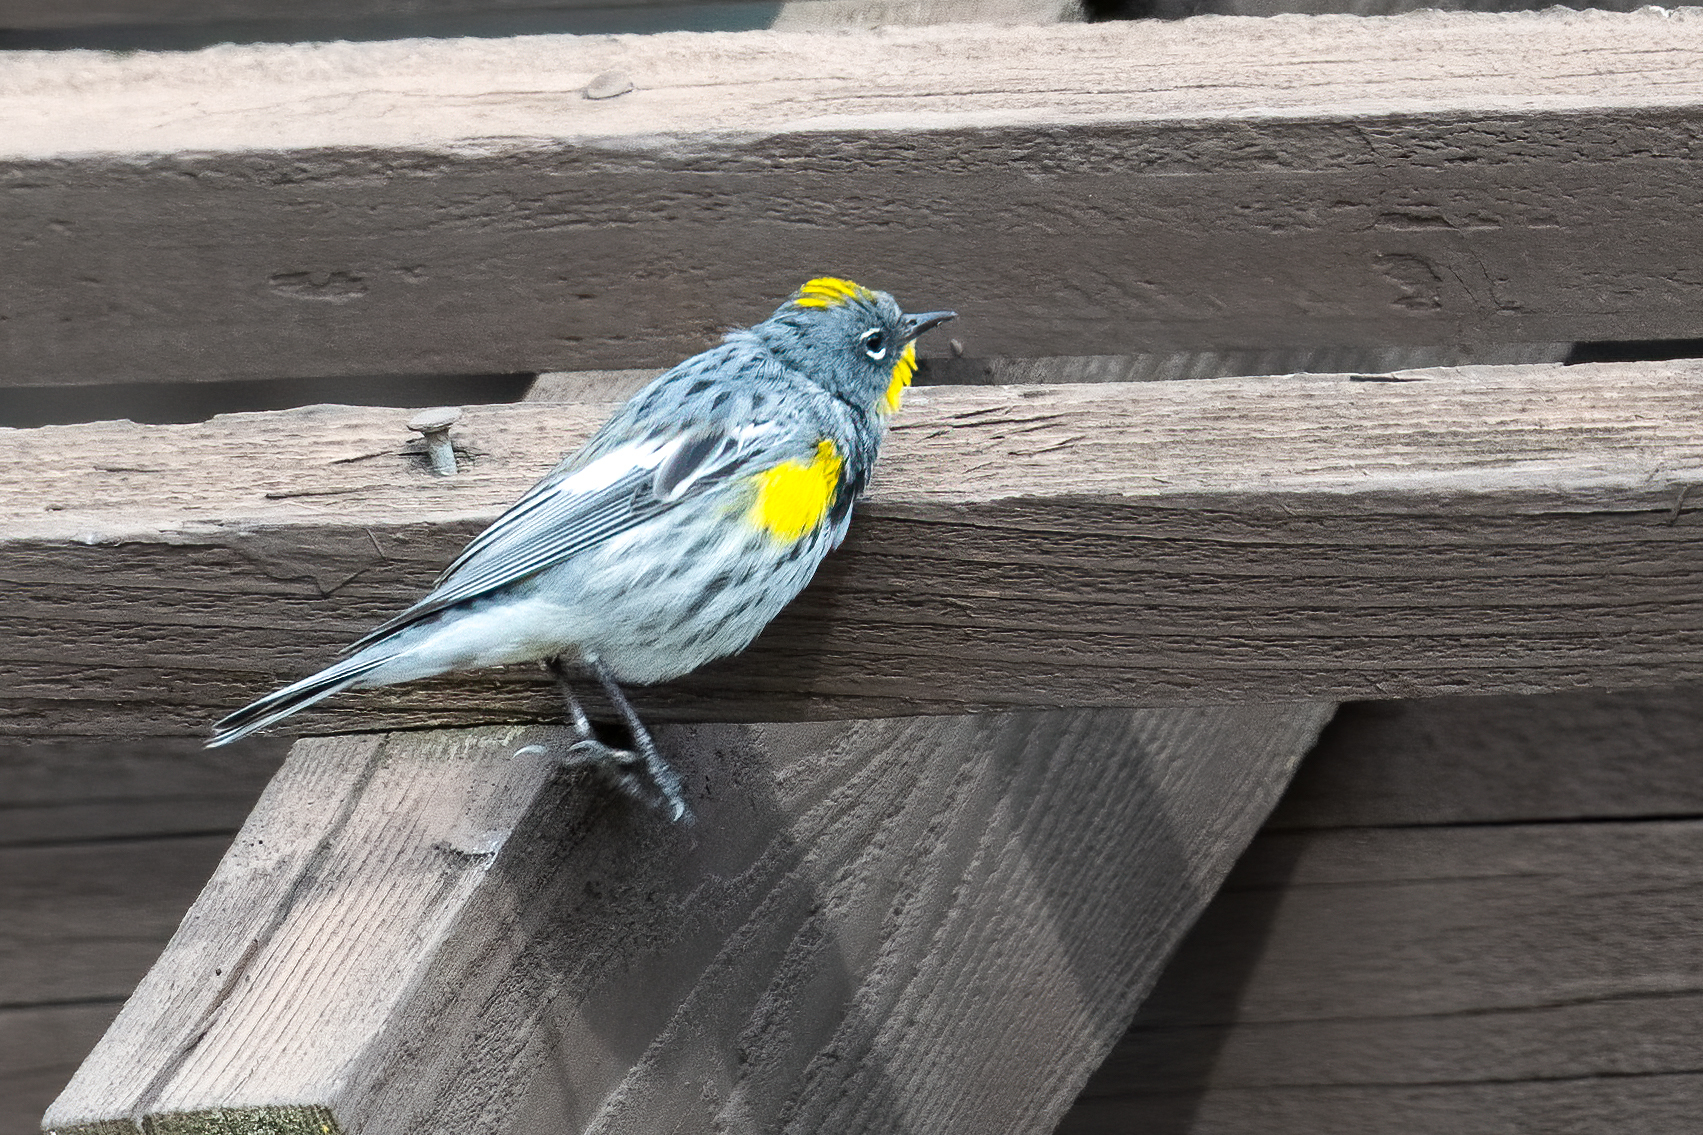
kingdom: Animalia
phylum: Chordata
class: Aves
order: Passeriformes
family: Parulidae
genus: Setophaga
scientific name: Setophaga auduboni
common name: Audubon's warbler
